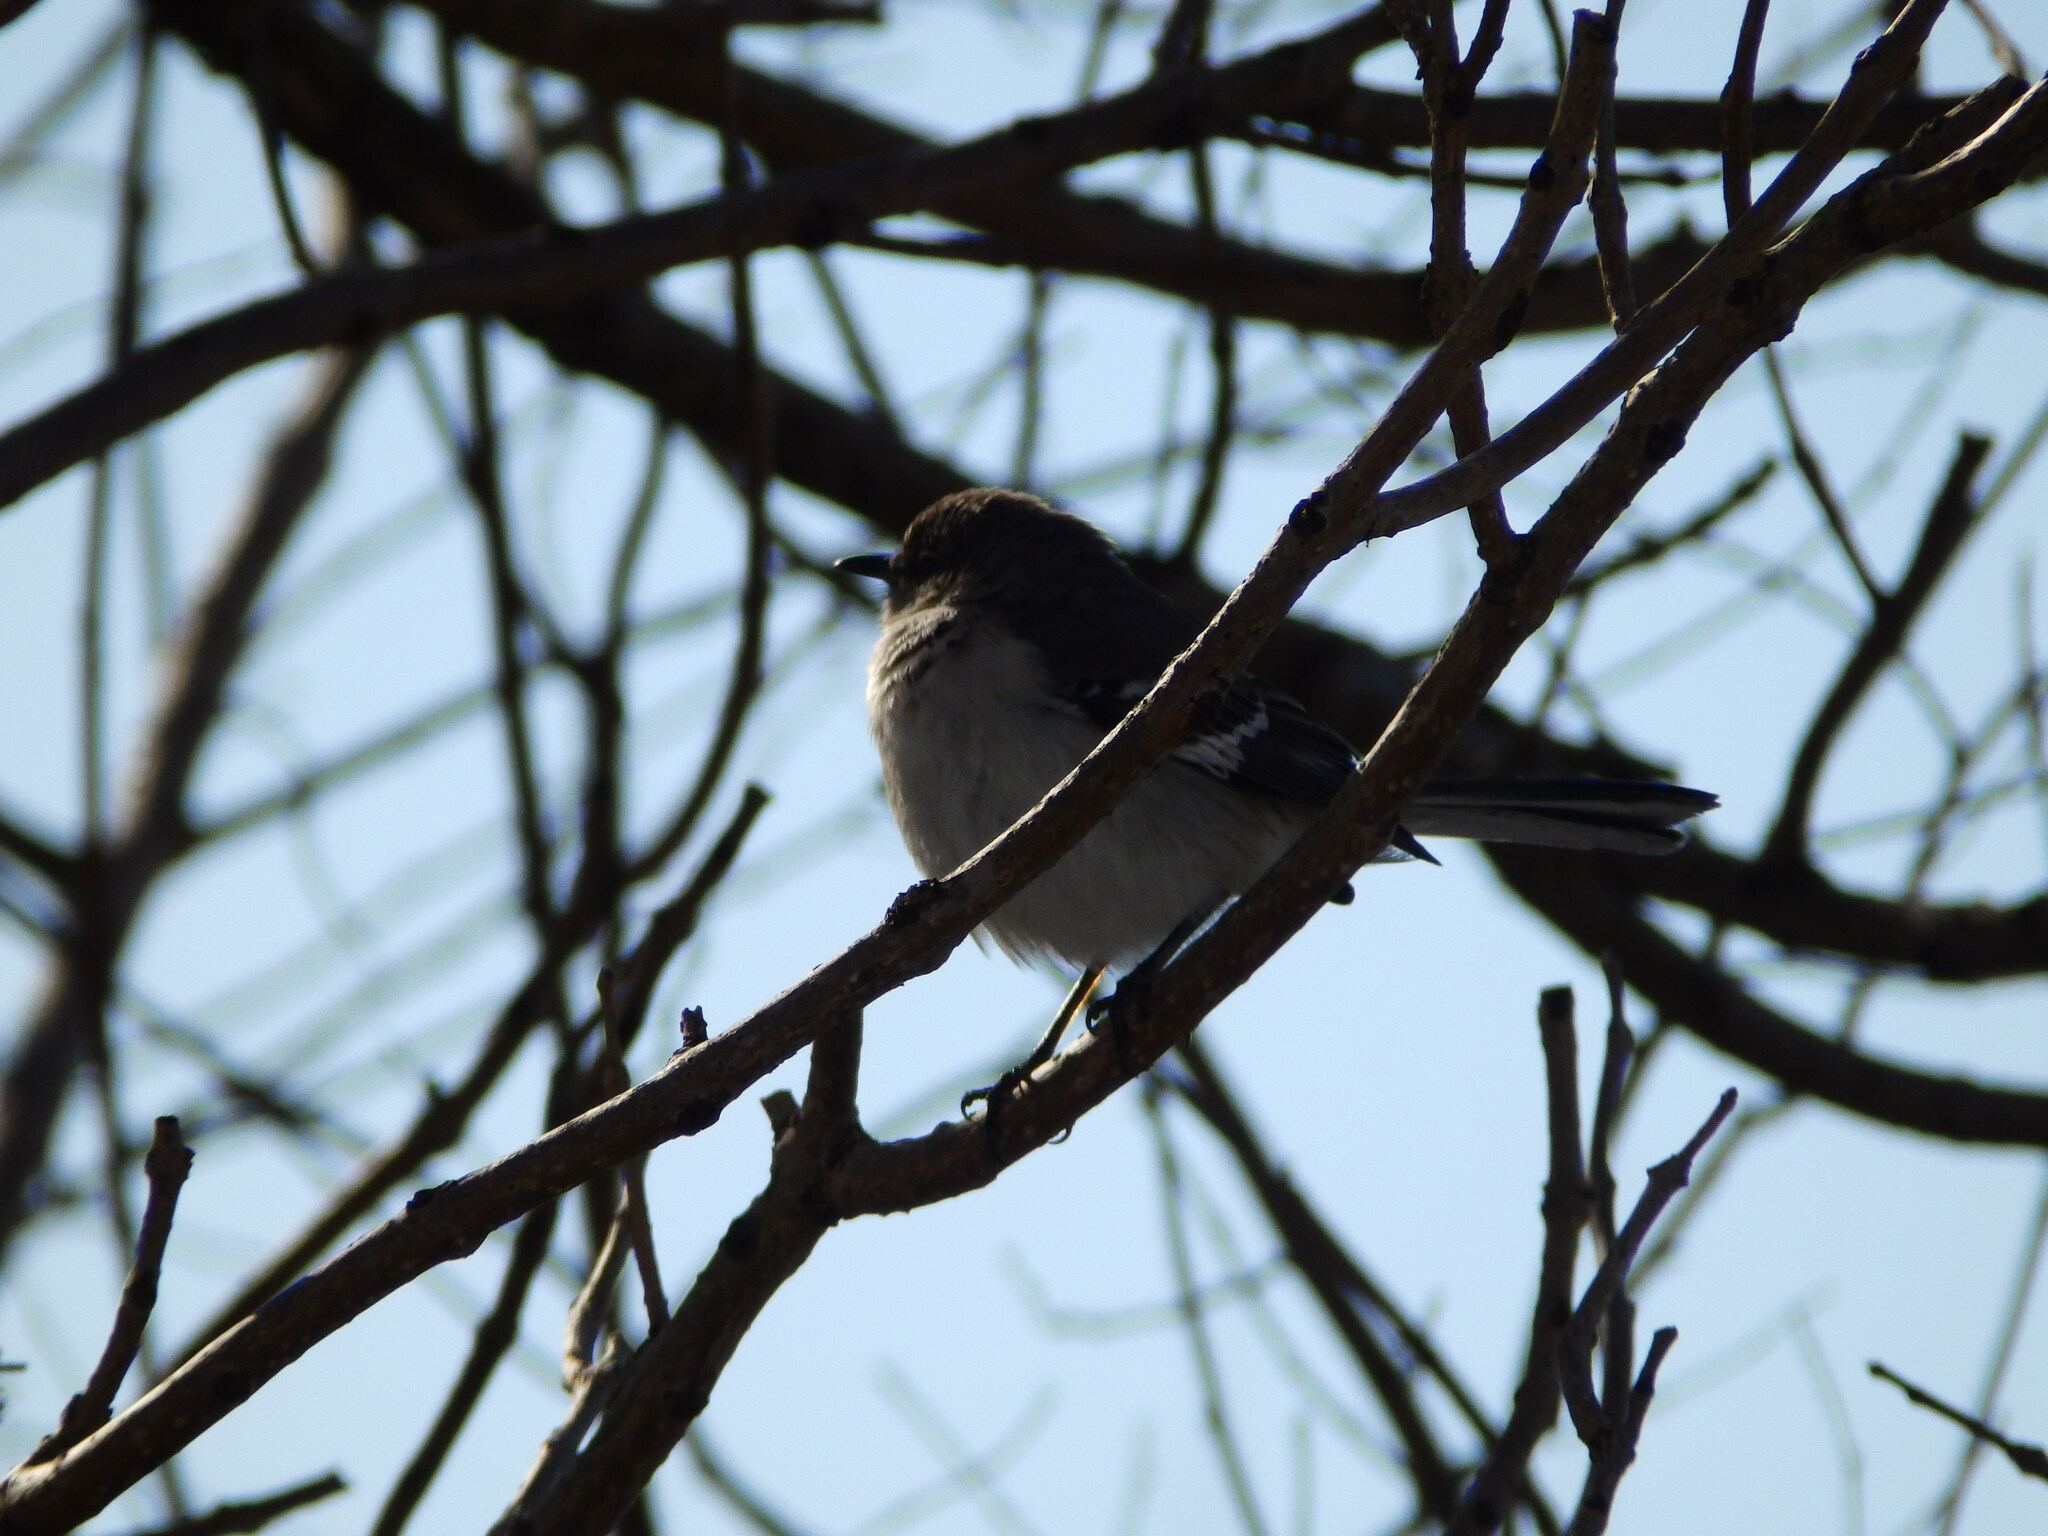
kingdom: Animalia
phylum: Chordata
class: Aves
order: Passeriformes
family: Mimidae
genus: Mimus
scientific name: Mimus polyglottos
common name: Northern mockingbird
